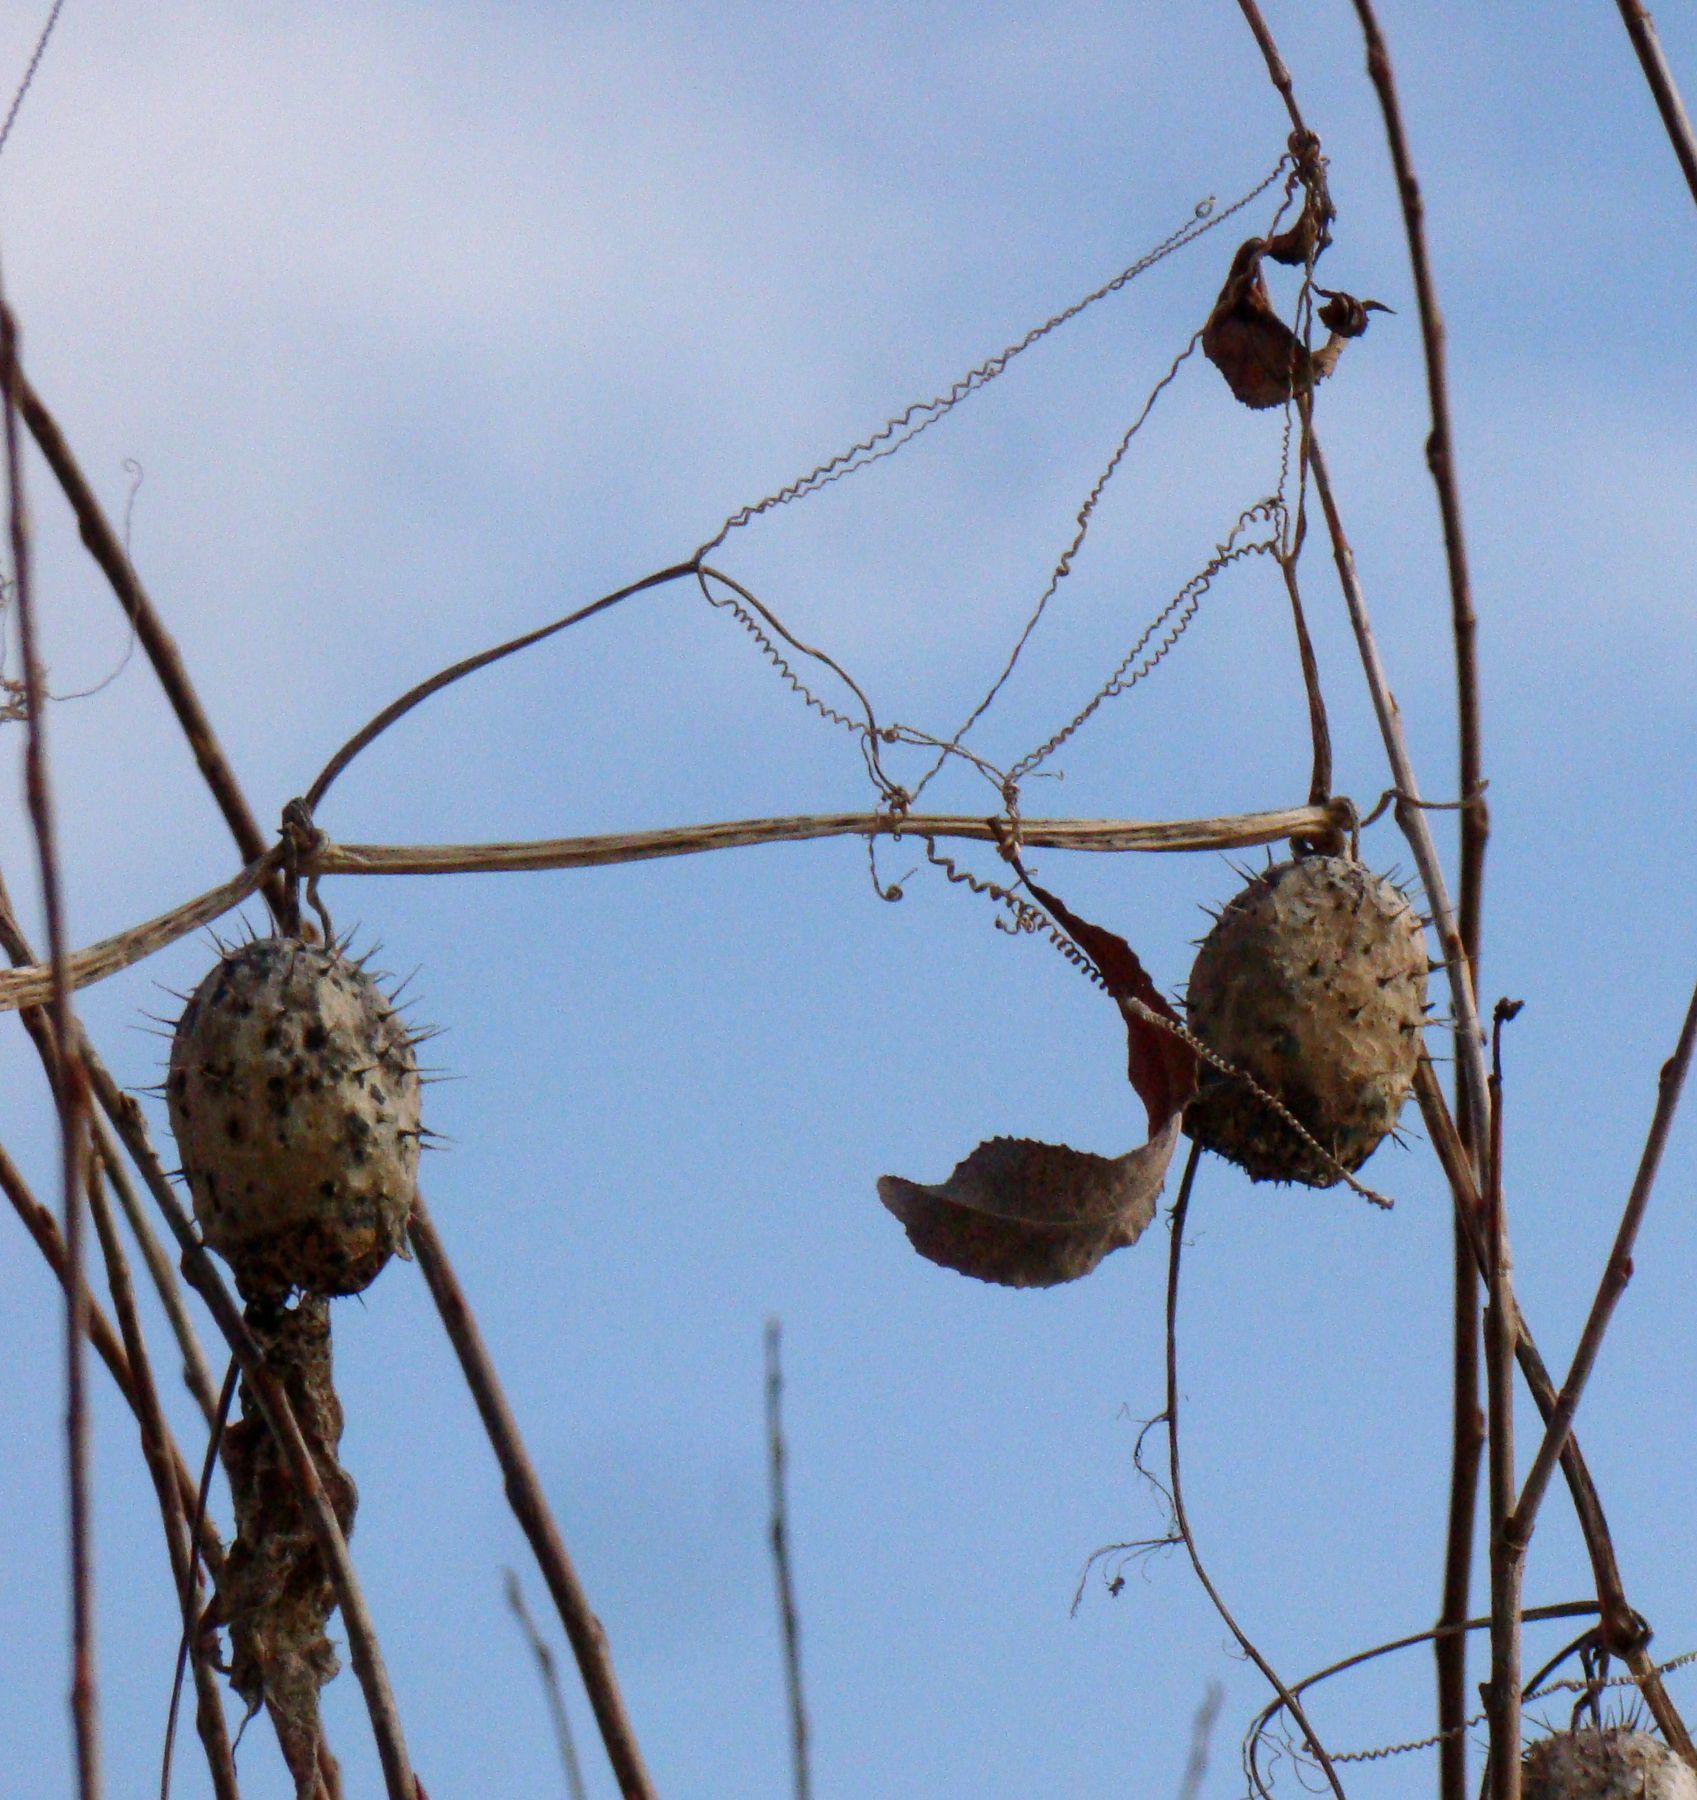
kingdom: Plantae
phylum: Tracheophyta
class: Magnoliopsida
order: Cucurbitales
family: Cucurbitaceae
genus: Echinocystis
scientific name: Echinocystis lobata
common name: Wild cucumber
